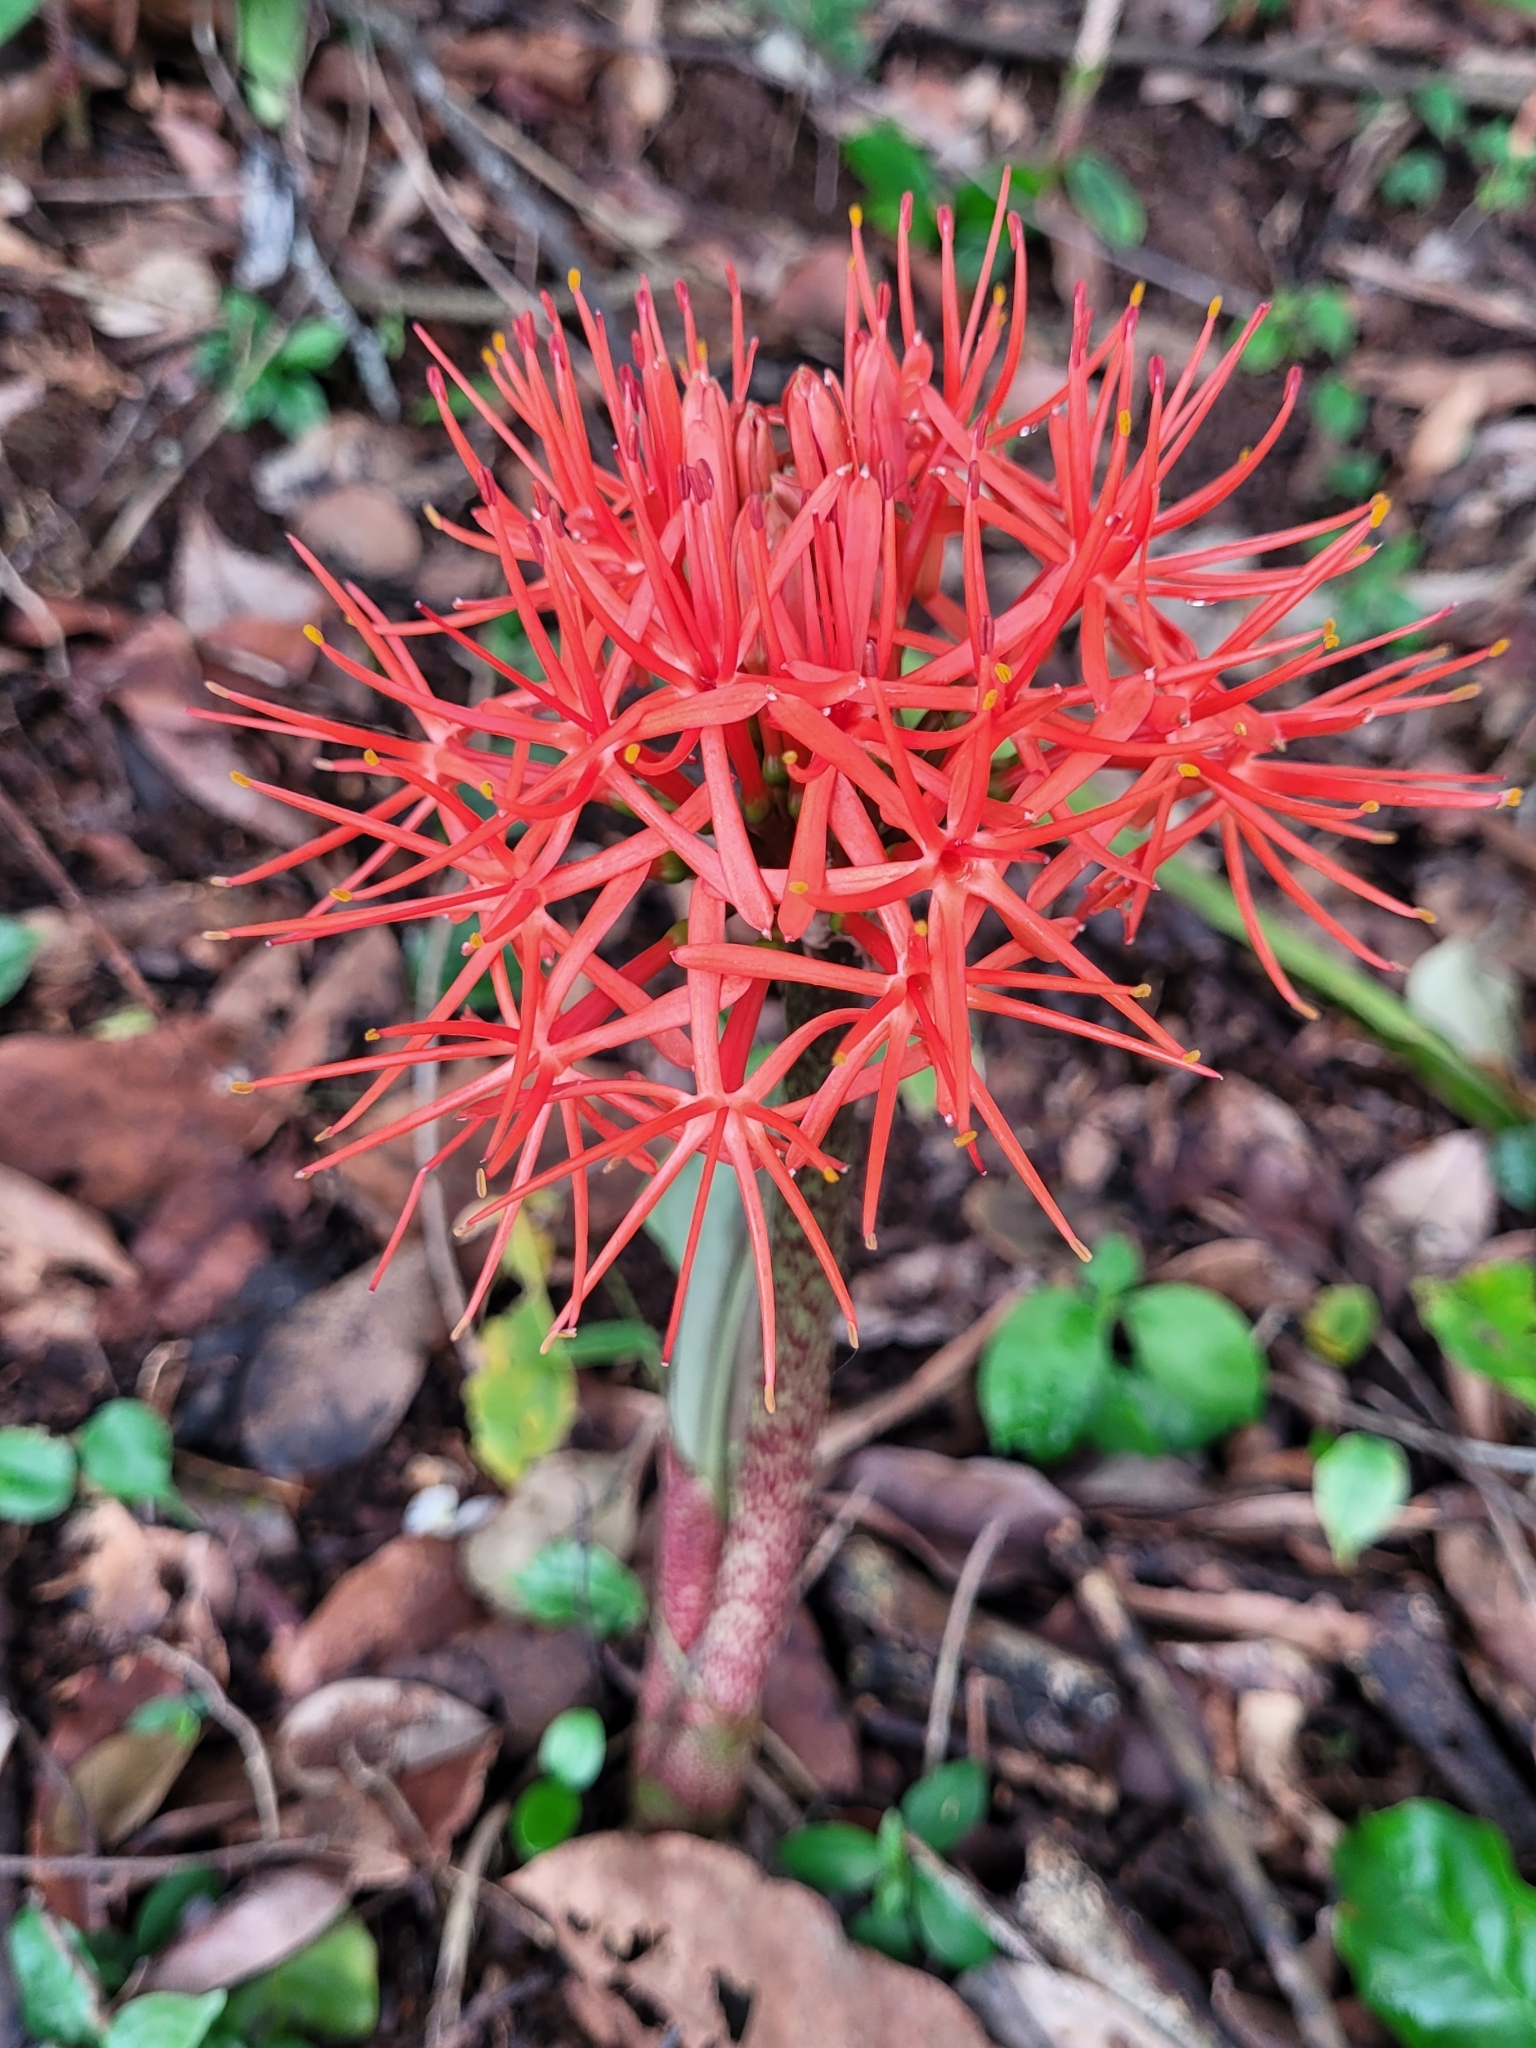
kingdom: Plantae
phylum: Tracheophyta
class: Liliopsida
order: Asparagales
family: Amaryllidaceae
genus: Scadoxus
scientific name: Scadoxus multiflorus
